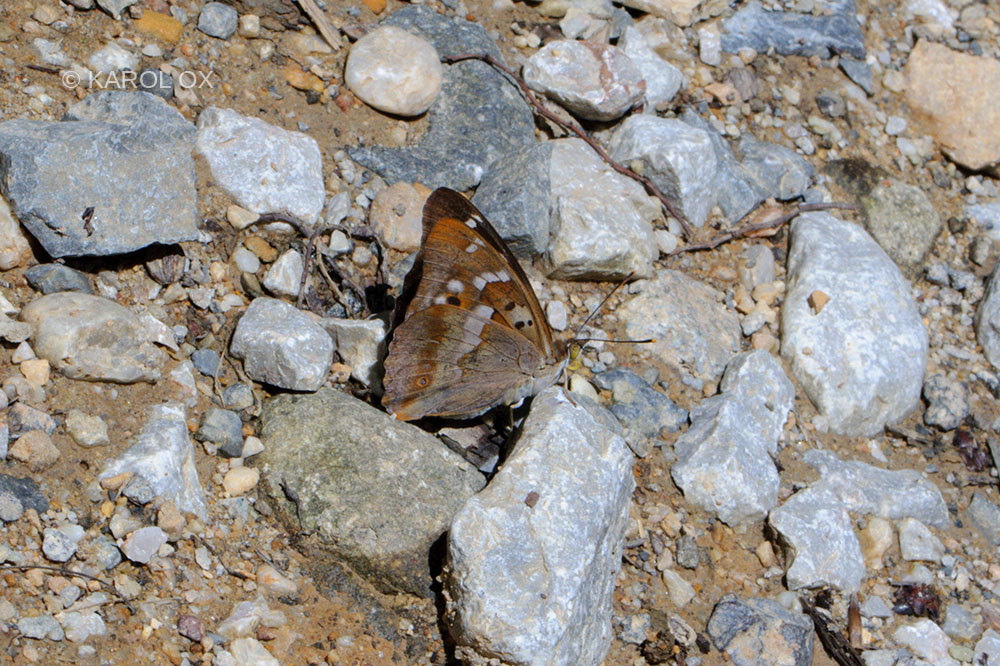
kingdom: Animalia
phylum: Arthropoda
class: Insecta
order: Lepidoptera
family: Nymphalidae
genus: Apatura
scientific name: Apatura ilia
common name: Lesser purple emperor
